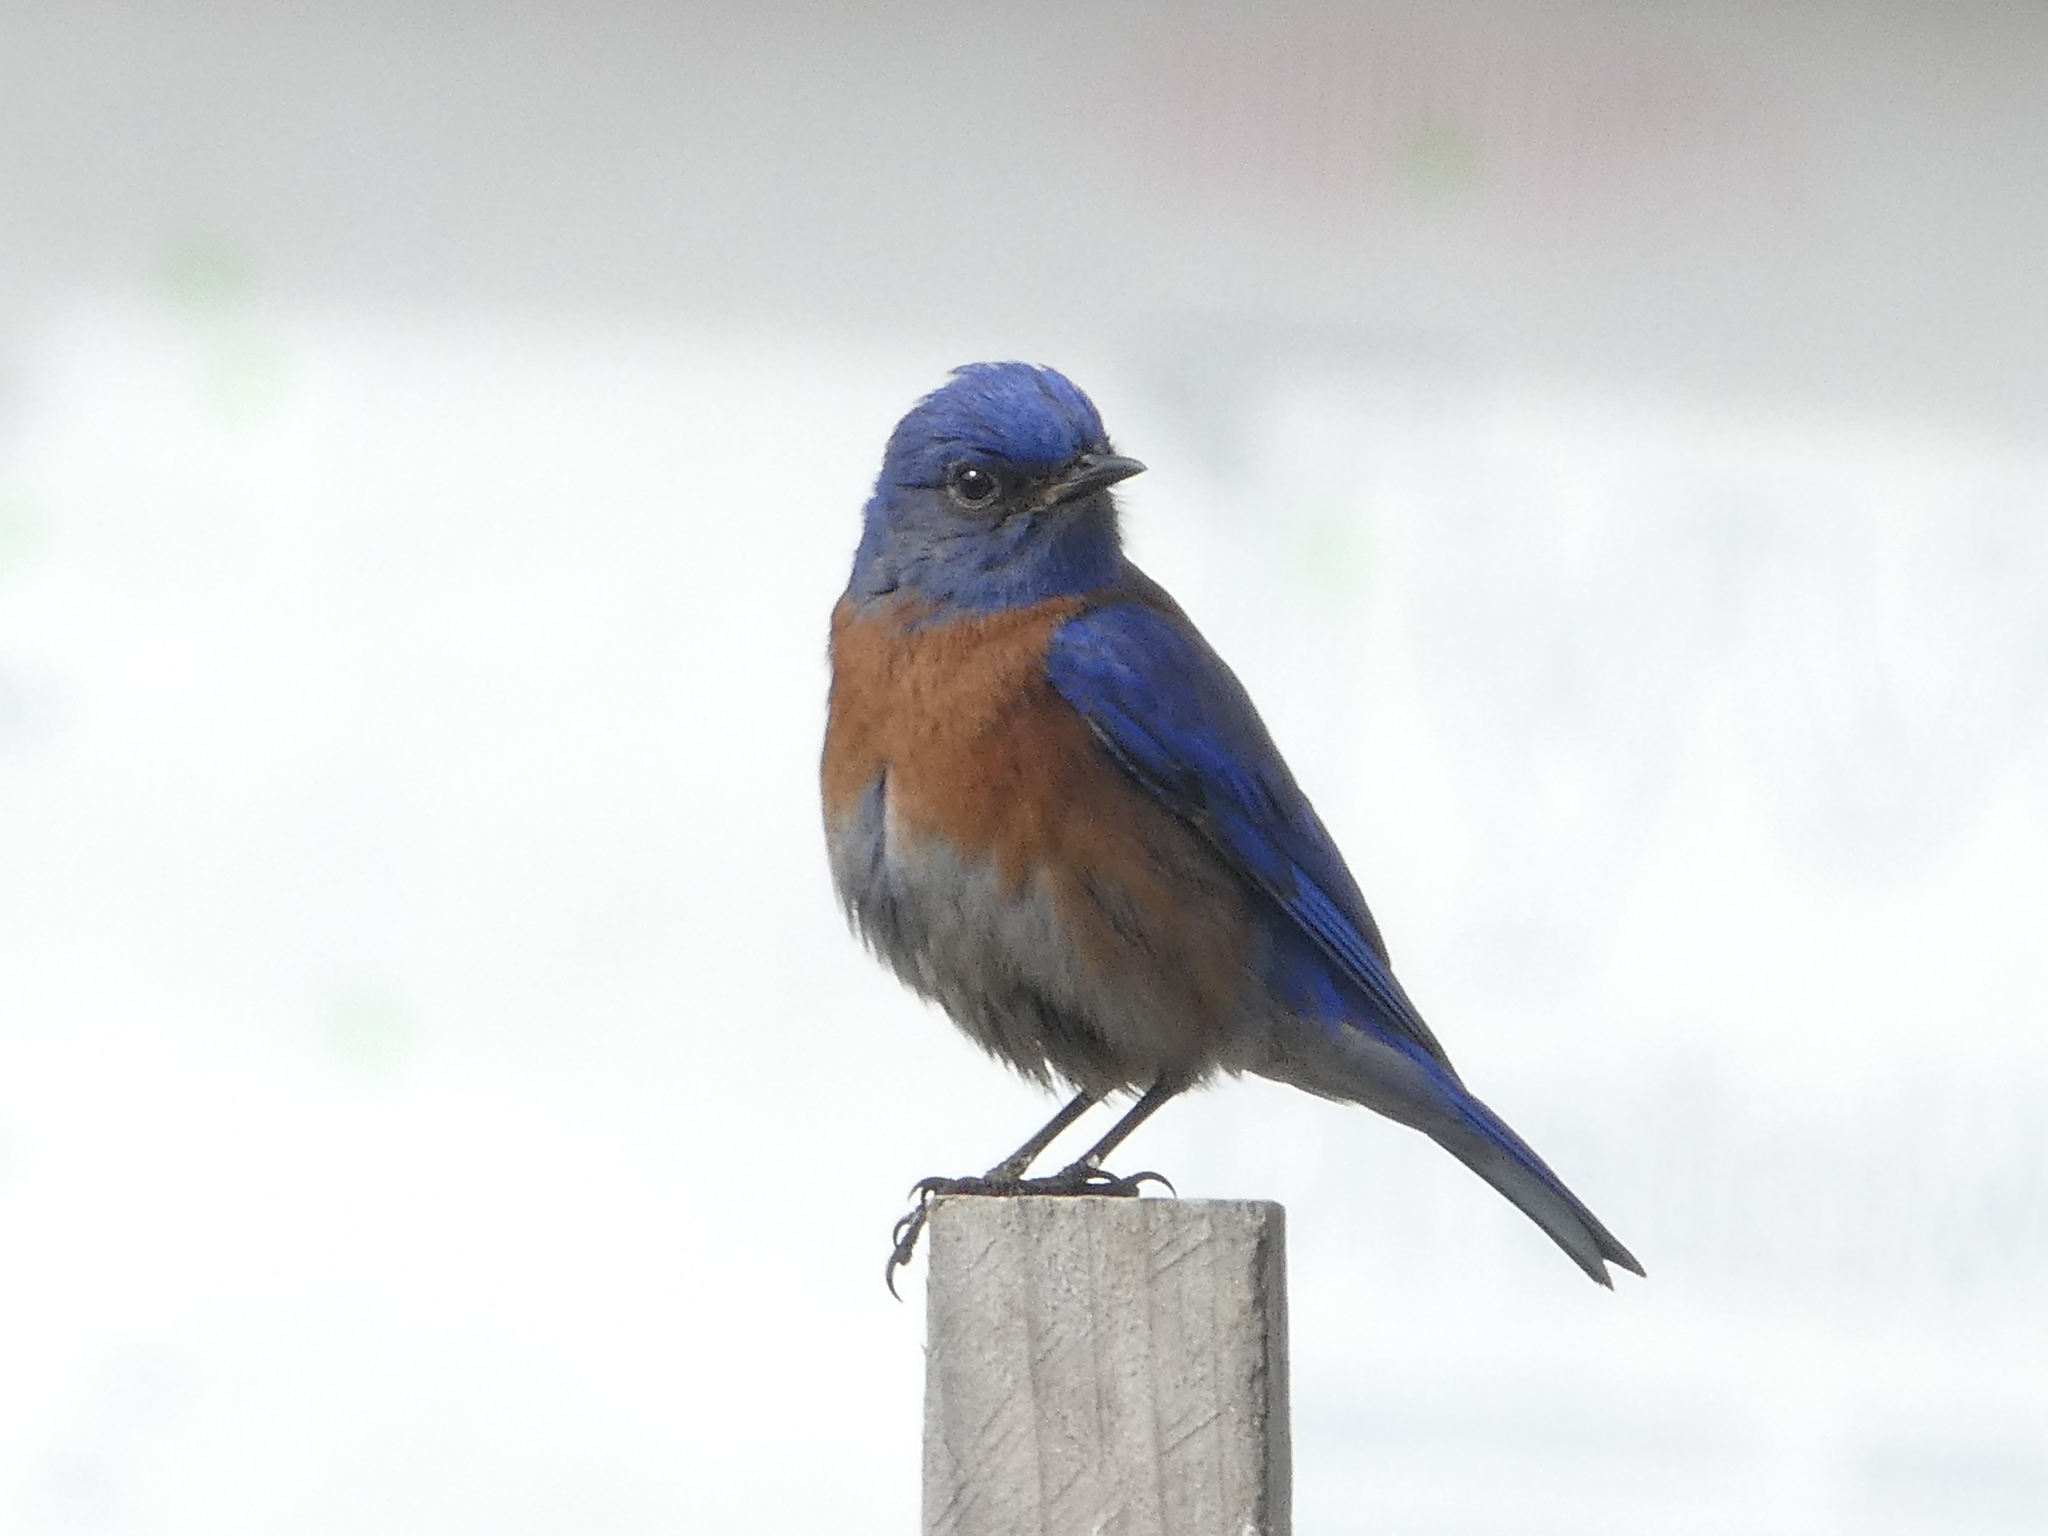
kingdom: Animalia
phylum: Chordata
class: Aves
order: Passeriformes
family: Turdidae
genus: Sialia
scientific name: Sialia mexicana
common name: Western bluebird
